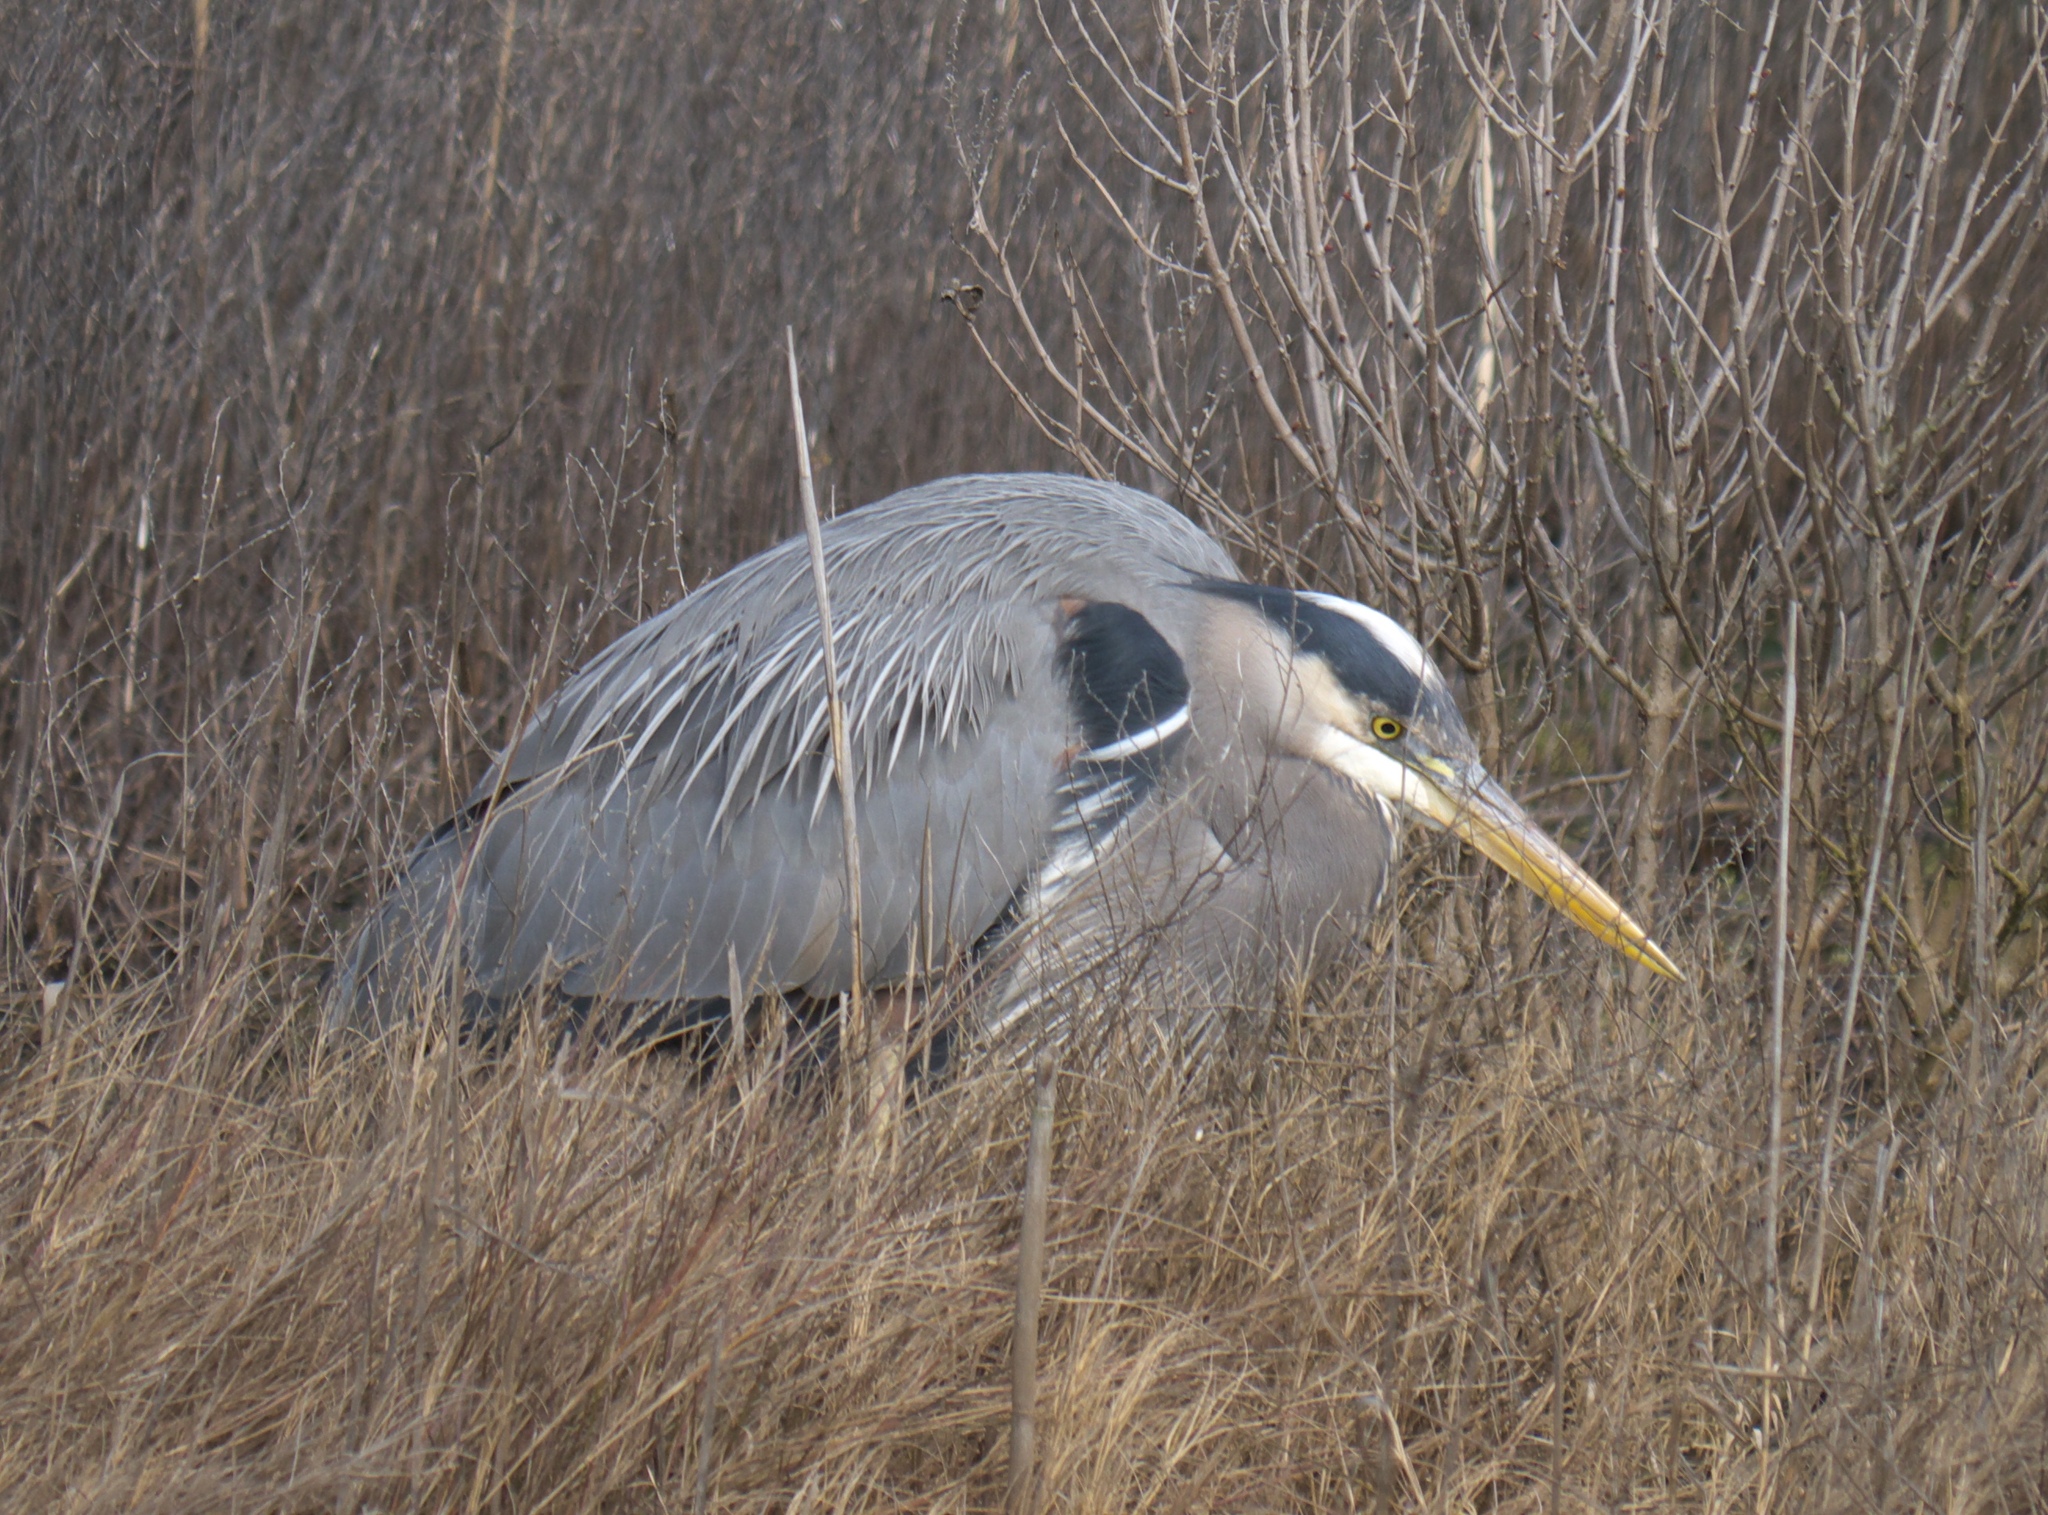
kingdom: Animalia
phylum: Chordata
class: Aves
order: Pelecaniformes
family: Ardeidae
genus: Ardea
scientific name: Ardea herodias
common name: Great blue heron
